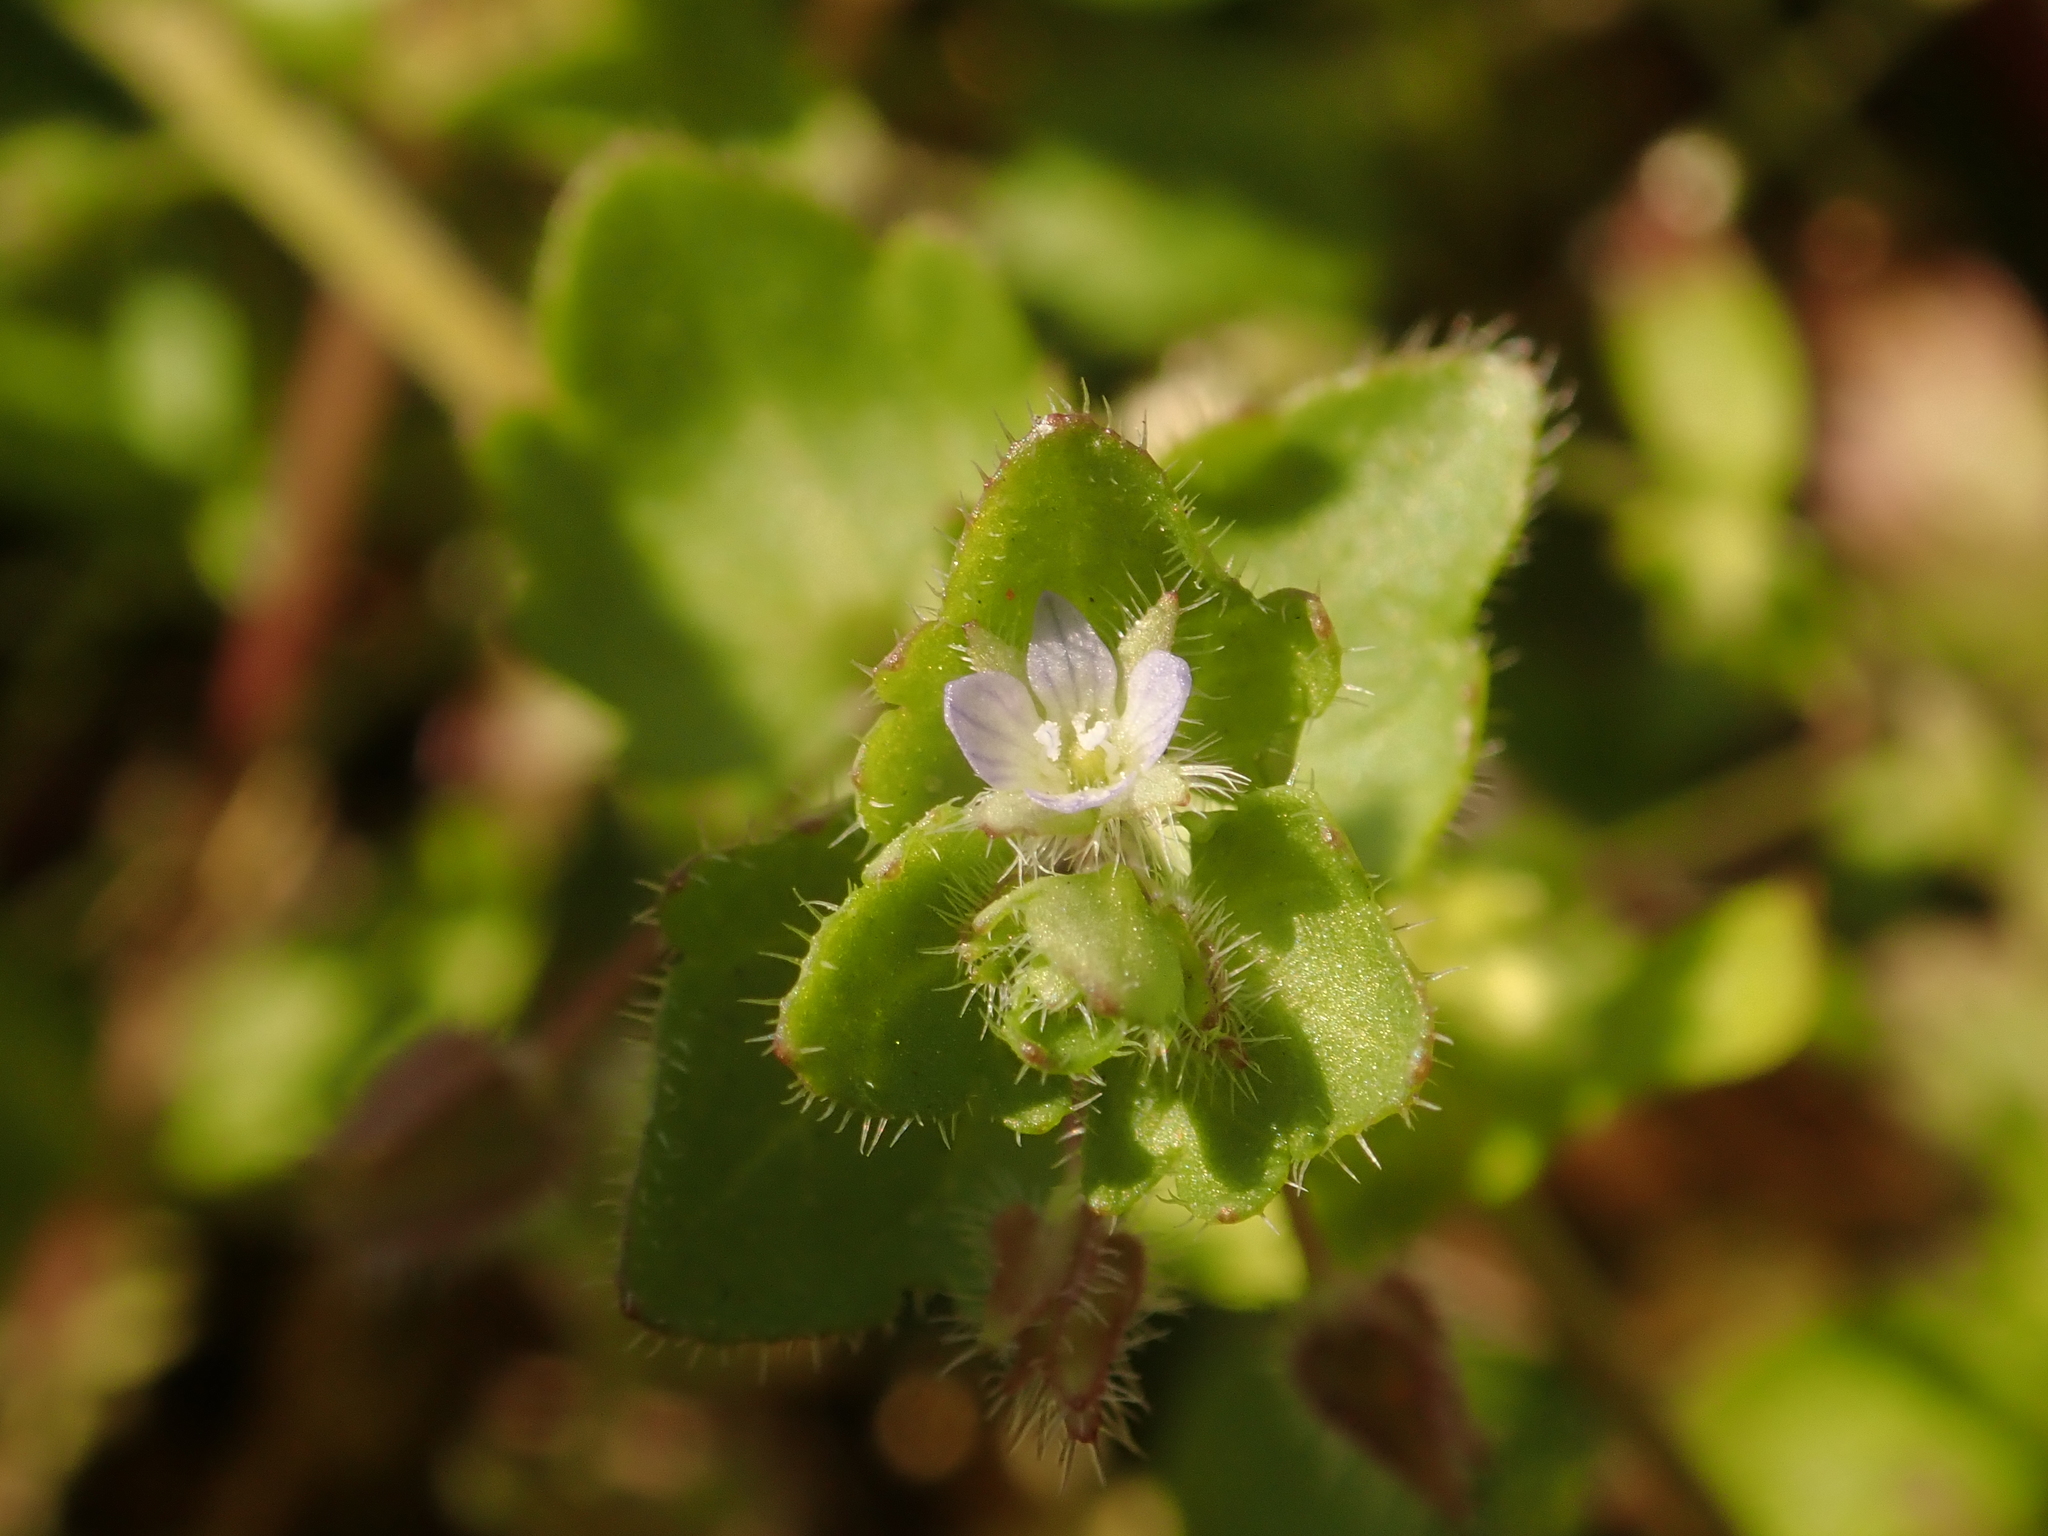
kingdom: Plantae
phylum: Tracheophyta
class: Magnoliopsida
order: Lamiales
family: Plantaginaceae
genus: Veronica
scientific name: Veronica hederifolia
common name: Ivy-leaved speedwell
